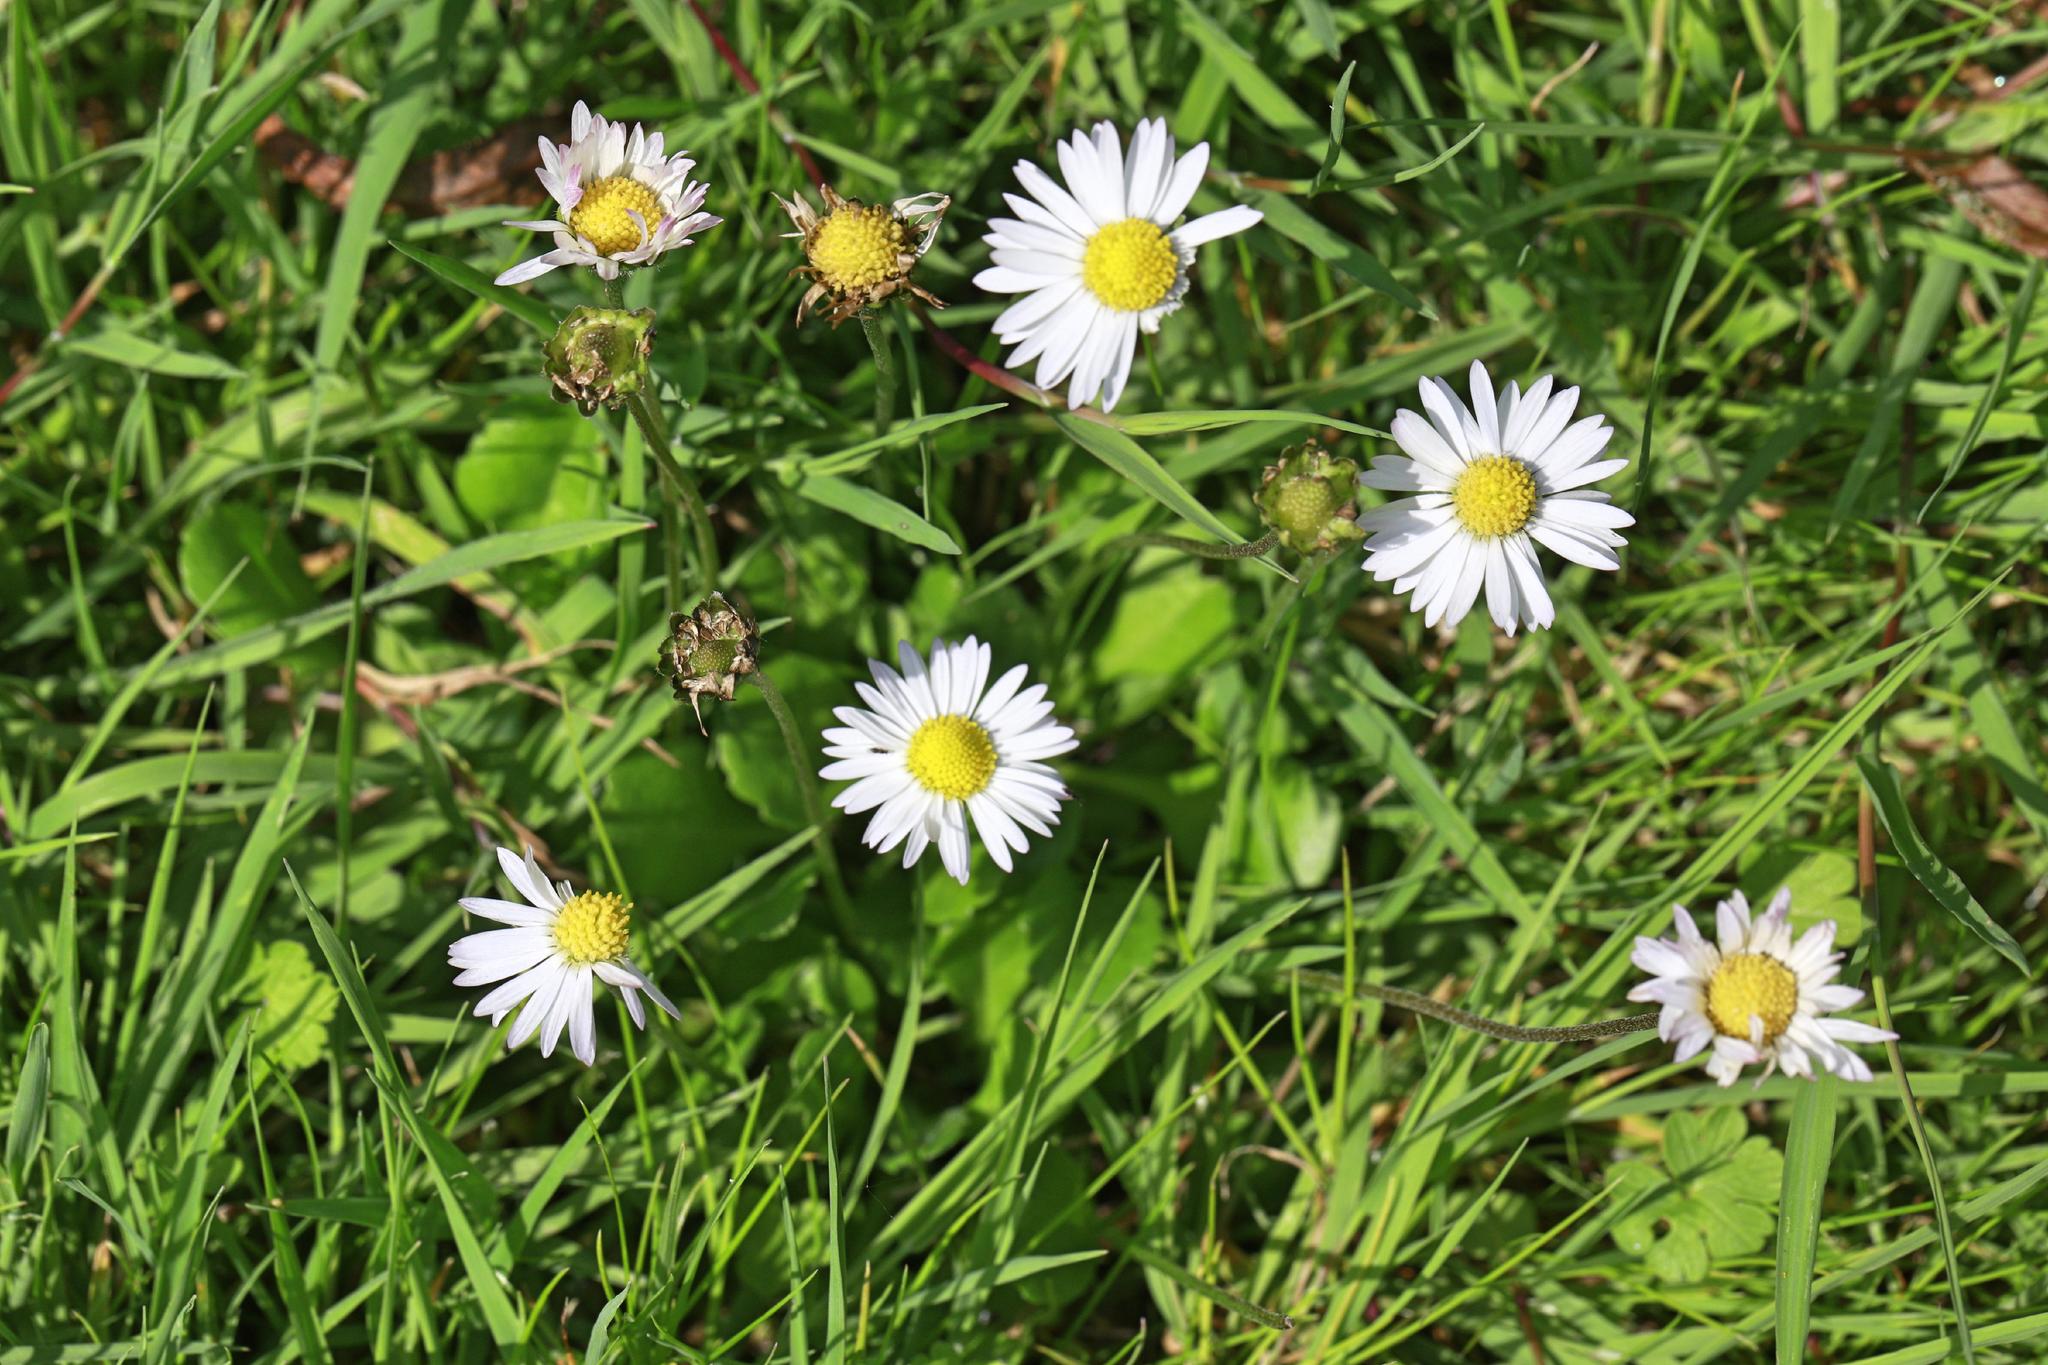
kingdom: Plantae
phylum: Tracheophyta
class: Magnoliopsida
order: Asterales
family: Asteraceae
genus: Bellis
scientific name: Bellis perennis
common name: Lawndaisy
